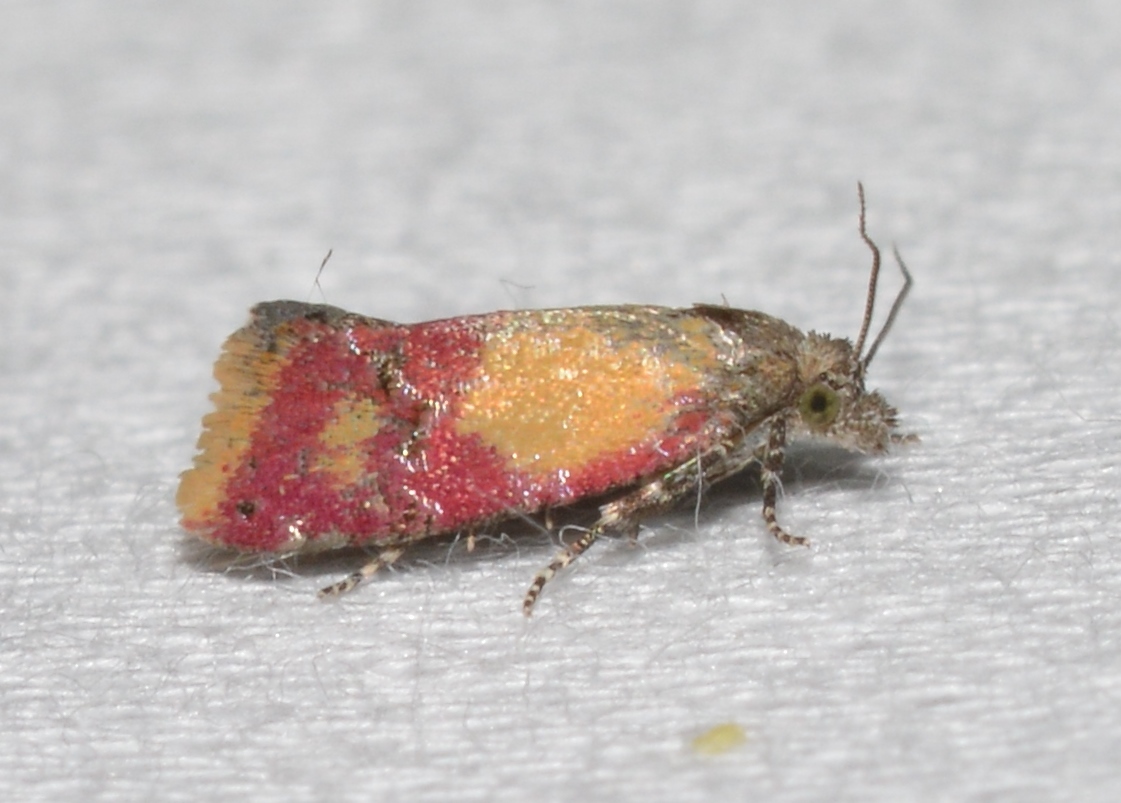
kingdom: Animalia
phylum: Arthropoda
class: Insecta
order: Lepidoptera
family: Tortricidae
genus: Conchylis
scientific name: Conchylis oenotherana
